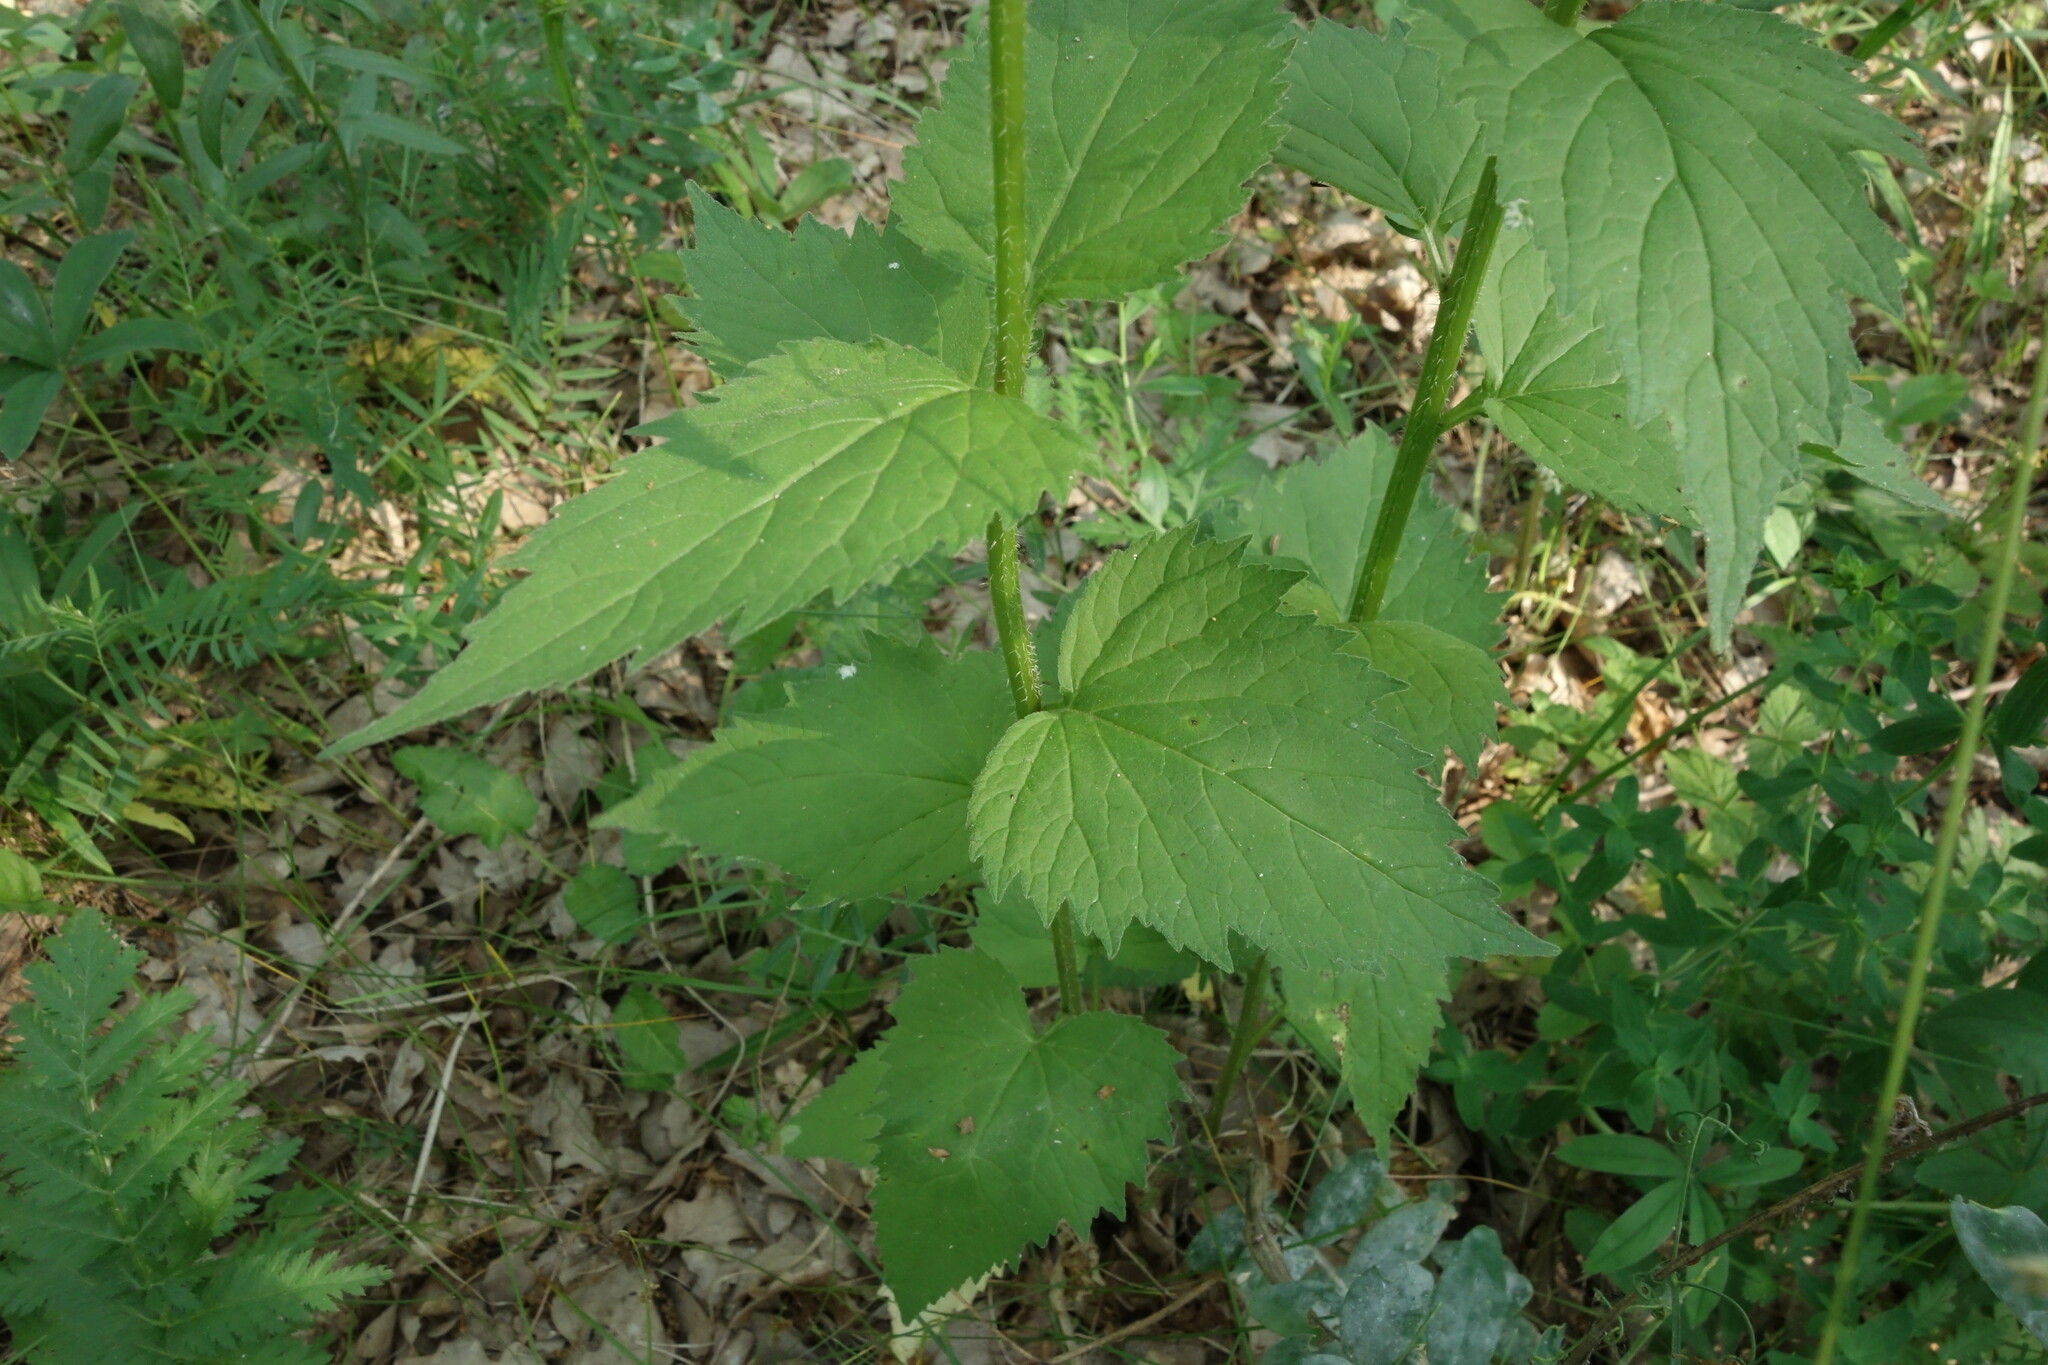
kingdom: Plantae
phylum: Tracheophyta
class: Magnoliopsida
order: Asterales
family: Campanulaceae
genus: Campanula
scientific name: Campanula trachelium
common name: Nettle-leaved bellflower
